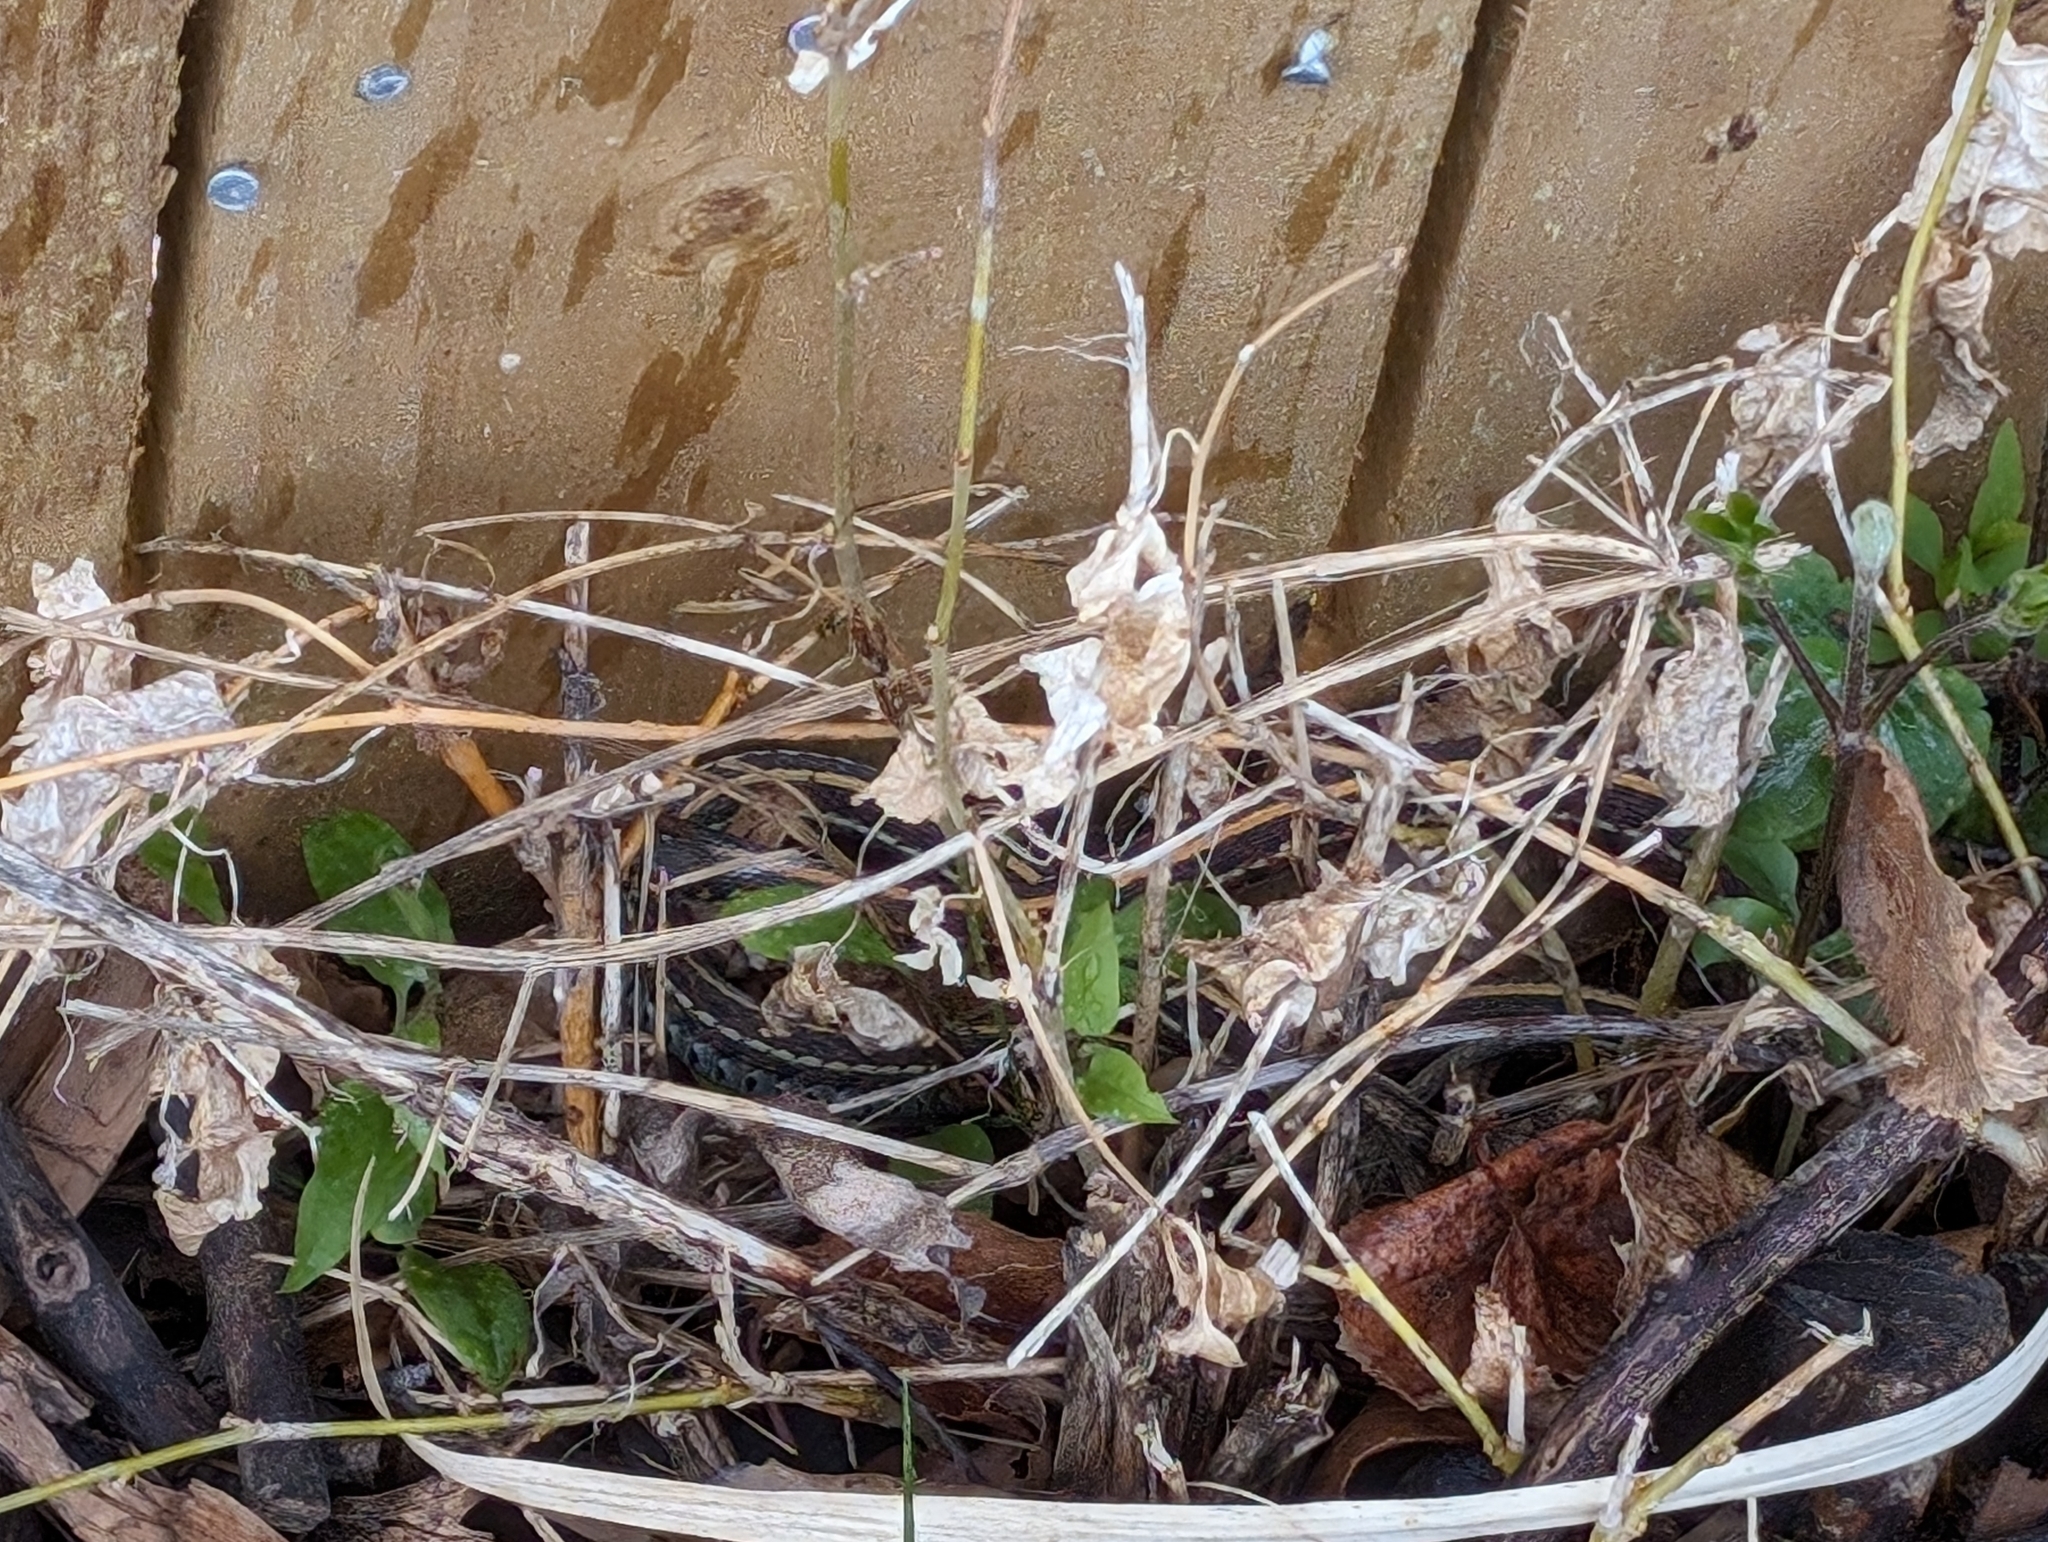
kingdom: Animalia
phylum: Chordata
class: Squamata
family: Colubridae
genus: Thamnophis
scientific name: Thamnophis radix
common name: Plains garter snake
